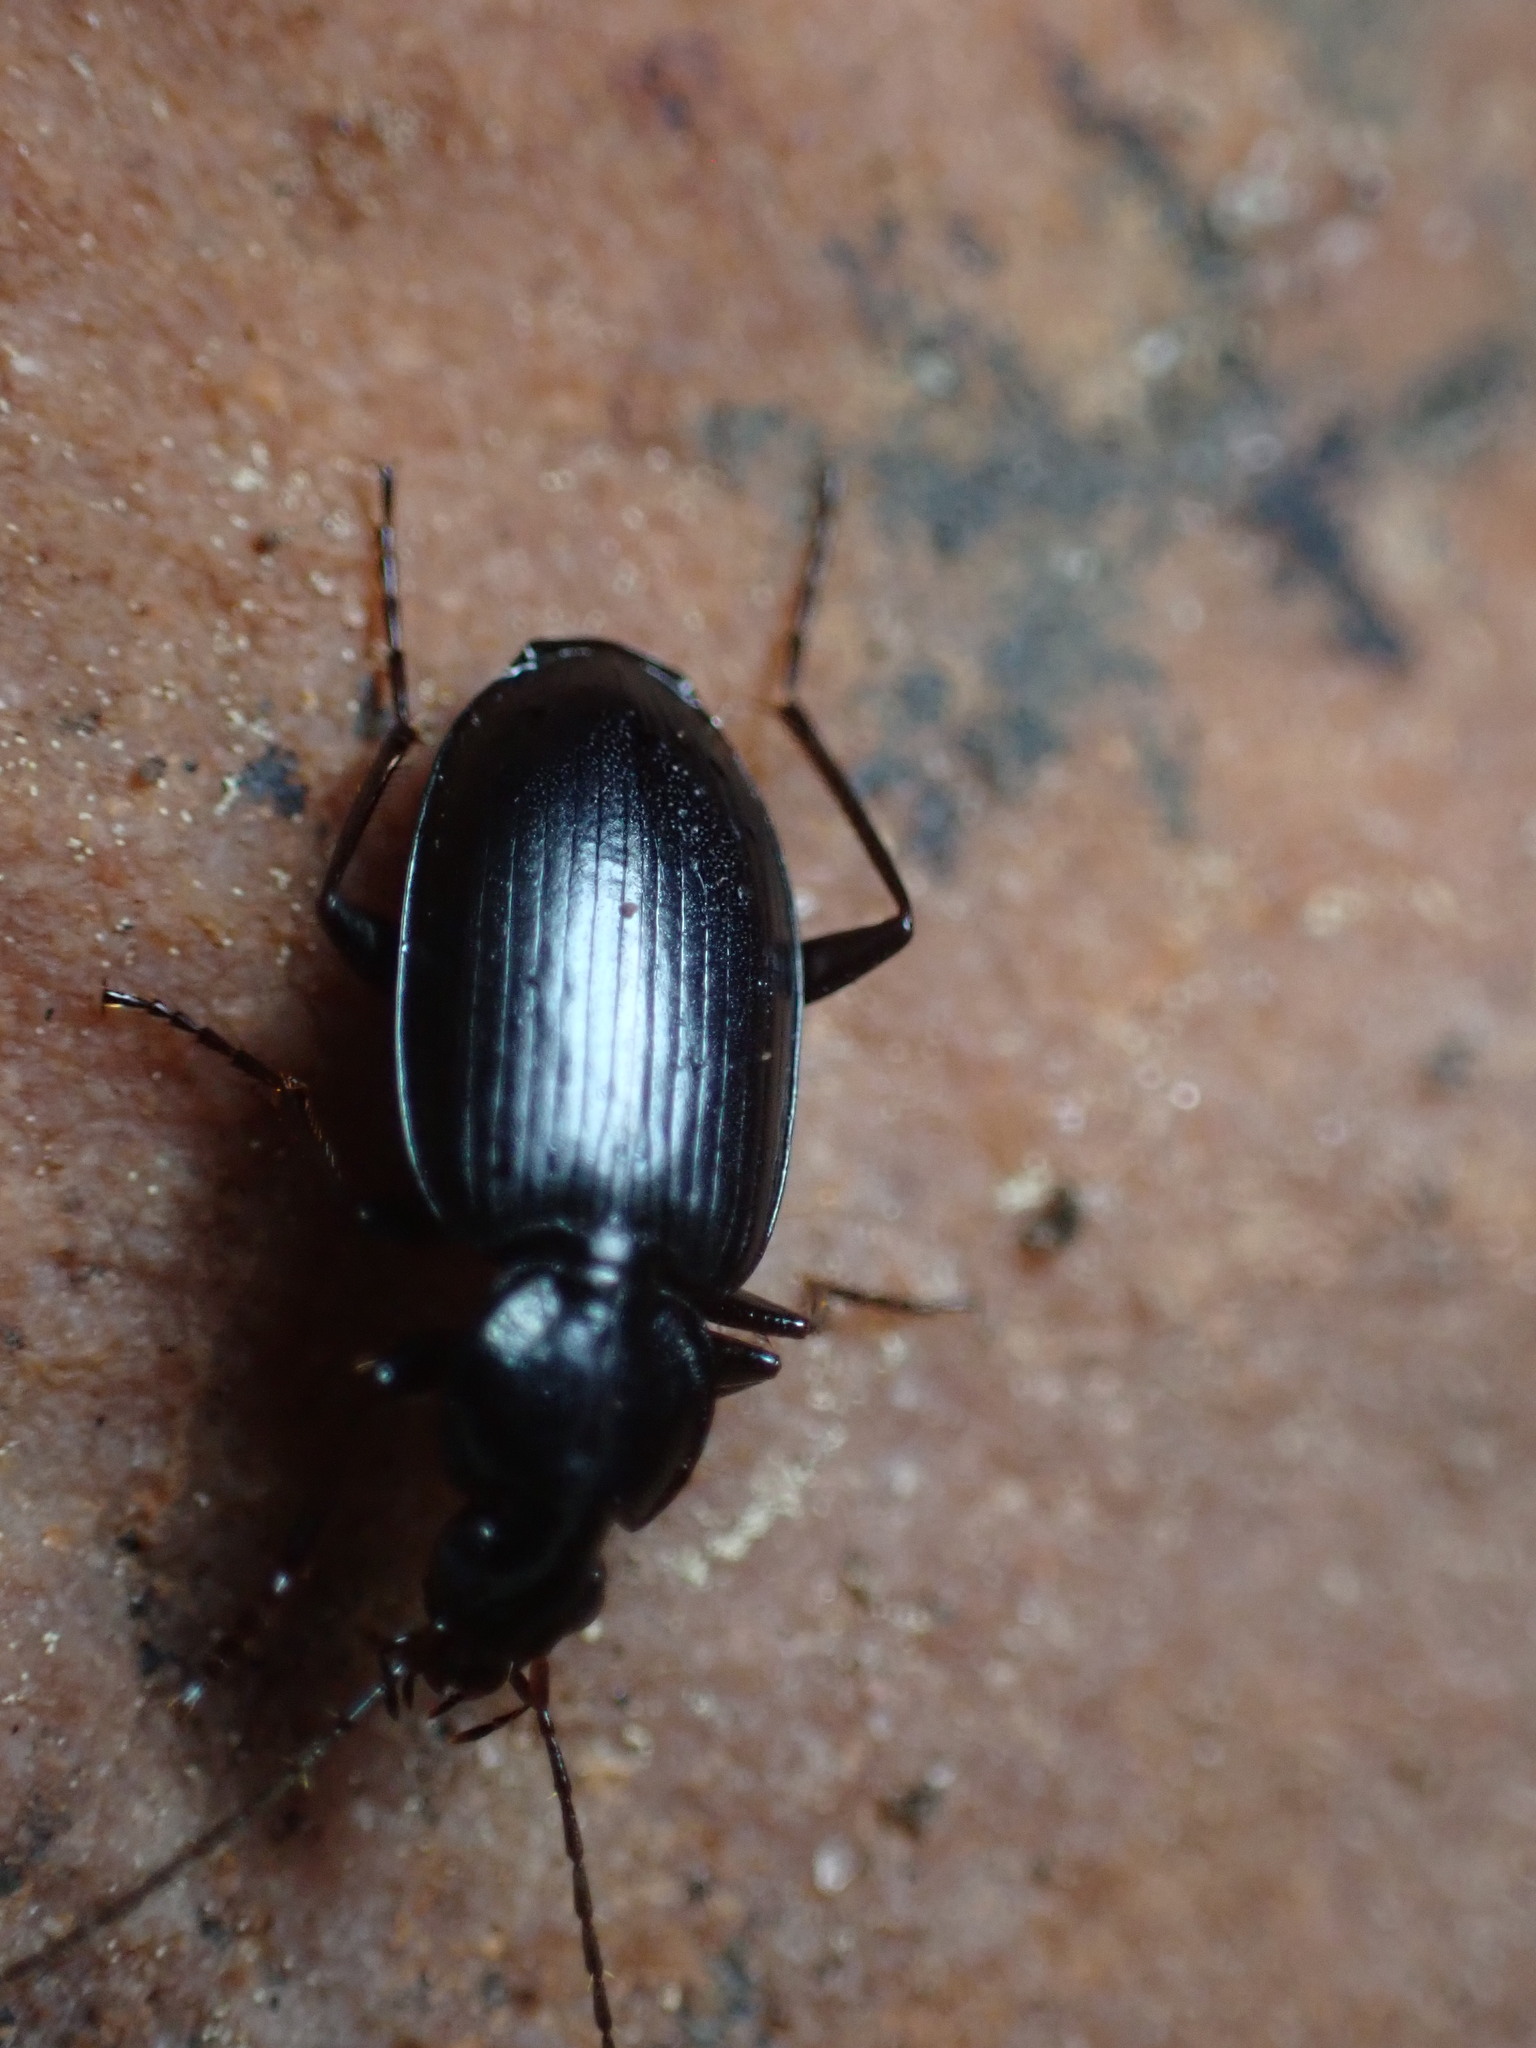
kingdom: Animalia
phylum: Arthropoda
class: Insecta
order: Coleoptera
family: Carabidae
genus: Agonum
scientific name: Agonum placidum
